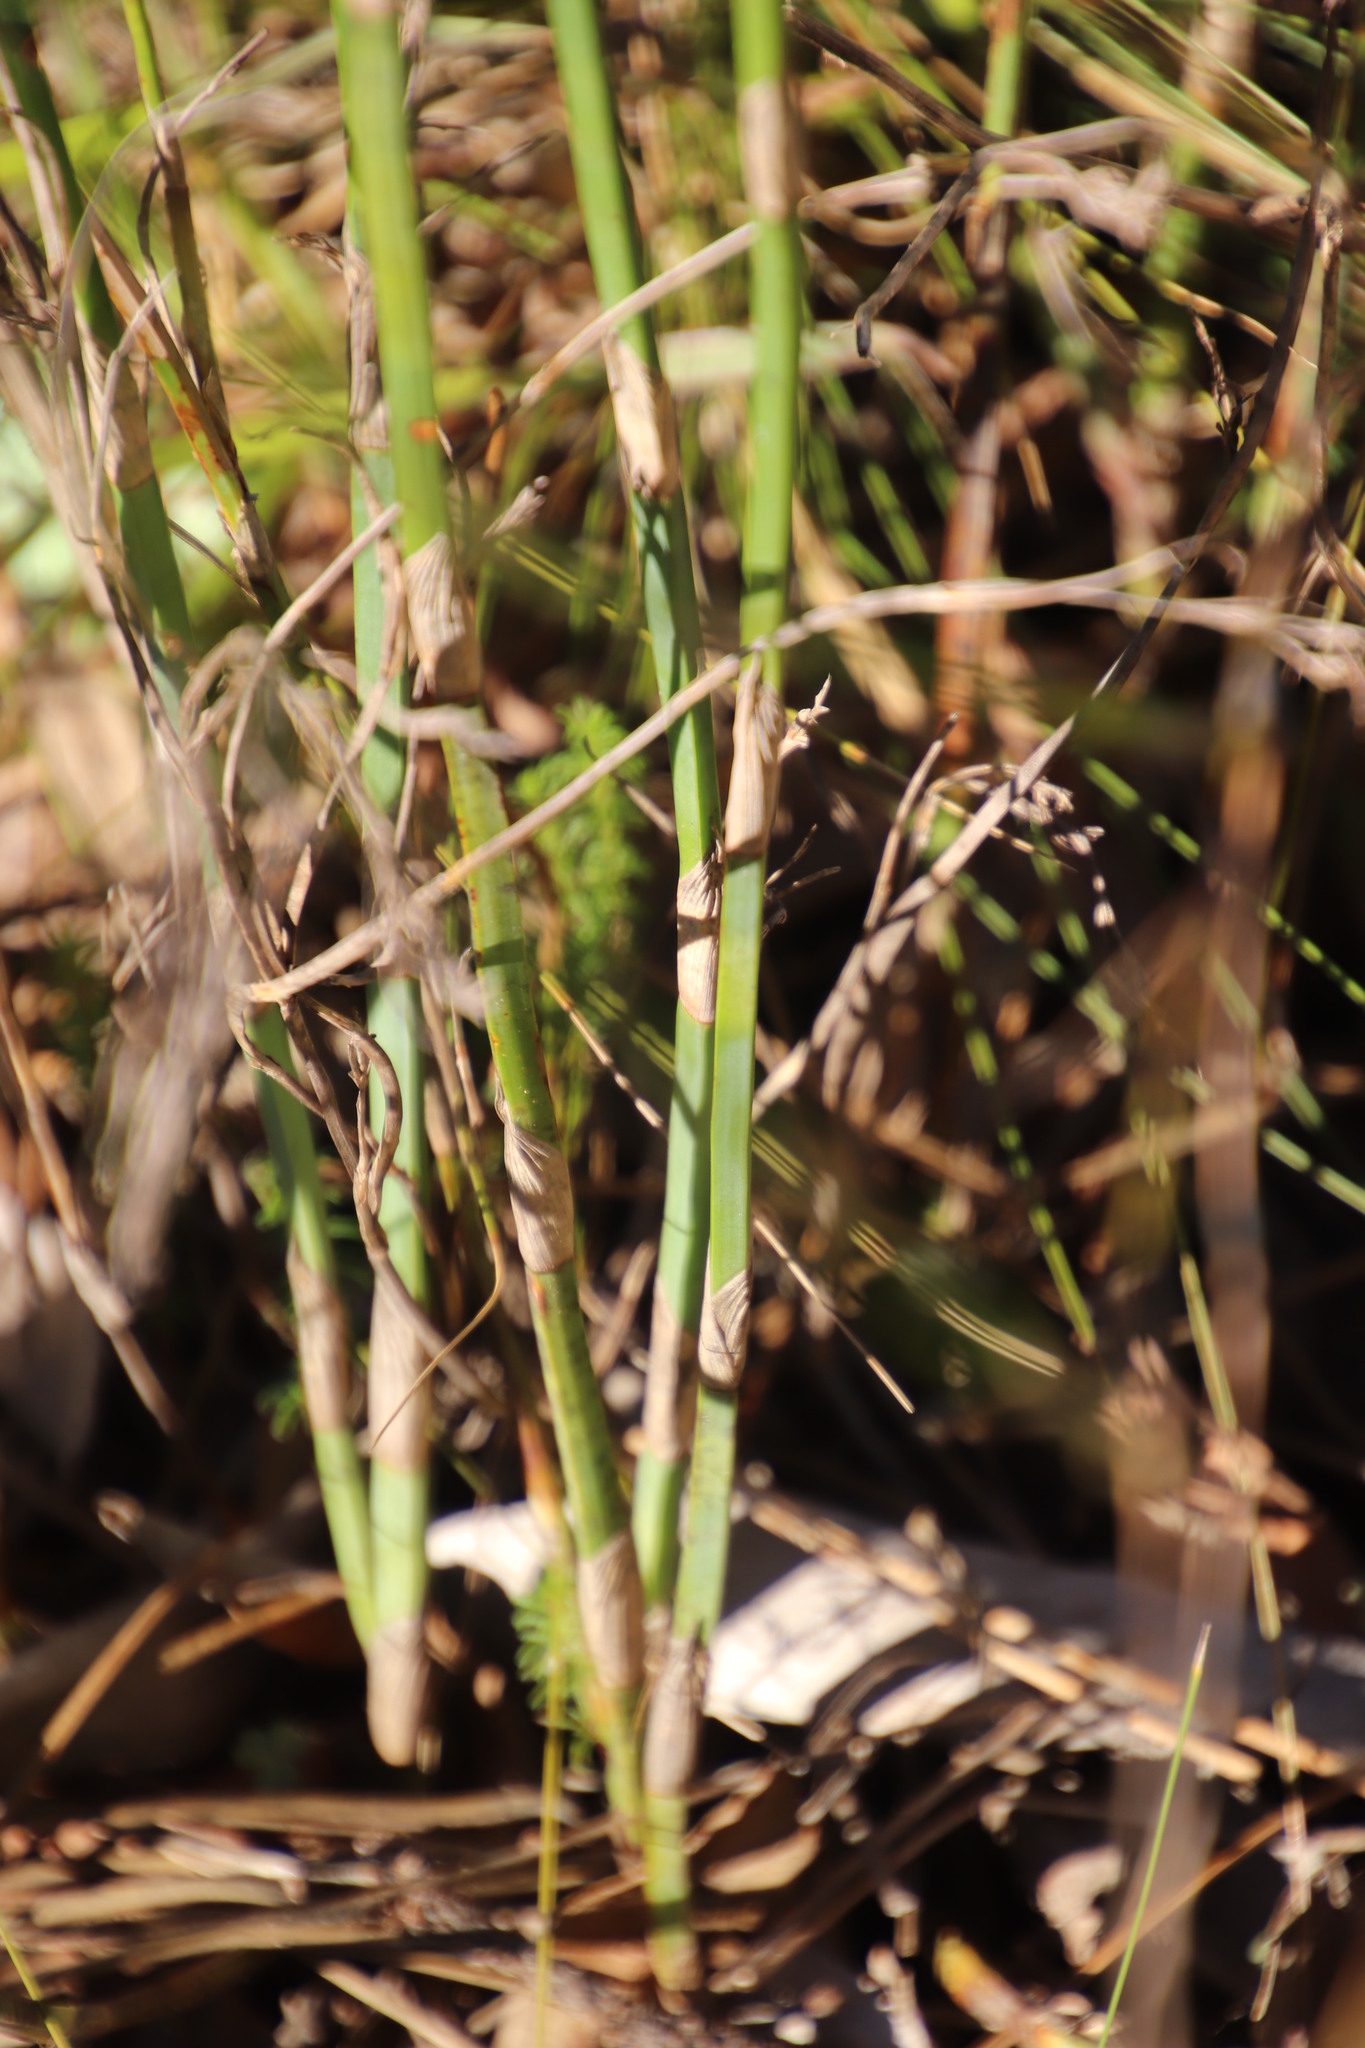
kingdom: Plantae
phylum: Tracheophyta
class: Liliopsida
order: Poales
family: Restionaceae
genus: Restio
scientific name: Restio tetragonus
